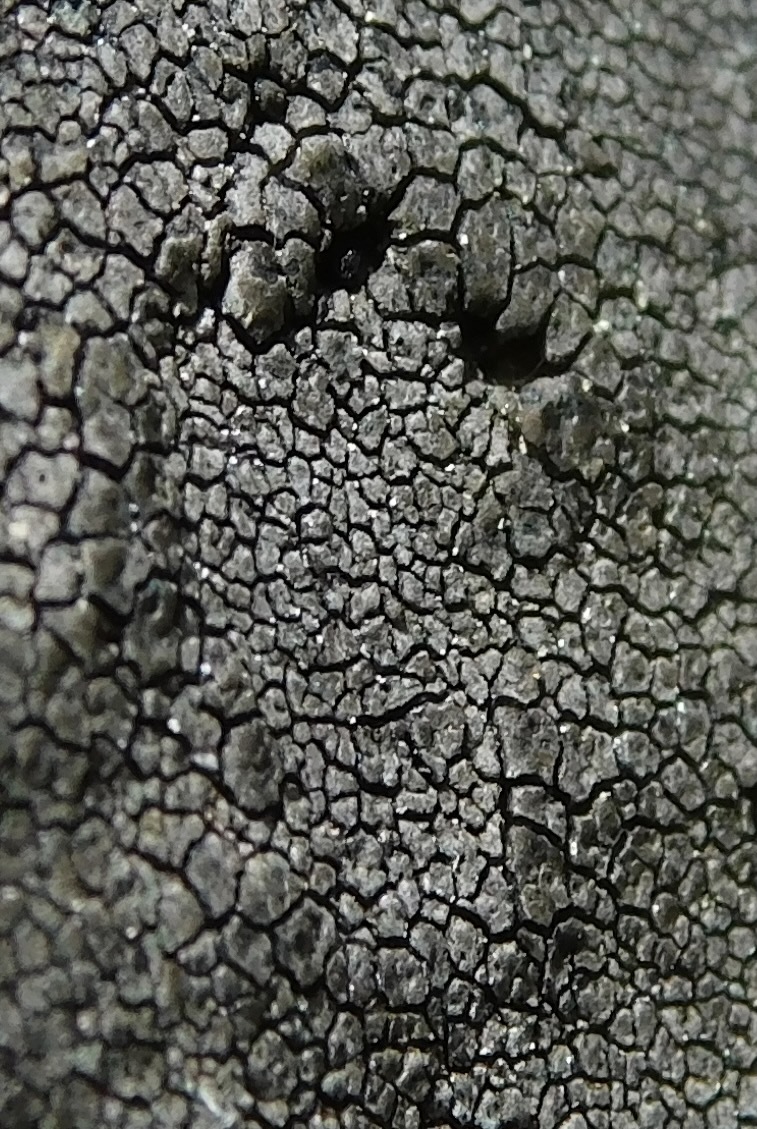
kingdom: Fungi
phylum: Ascomycota
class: Eurotiomycetes
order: Verrucariales
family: Verrucariaceae
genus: Willeya
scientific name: Willeya diffractella
